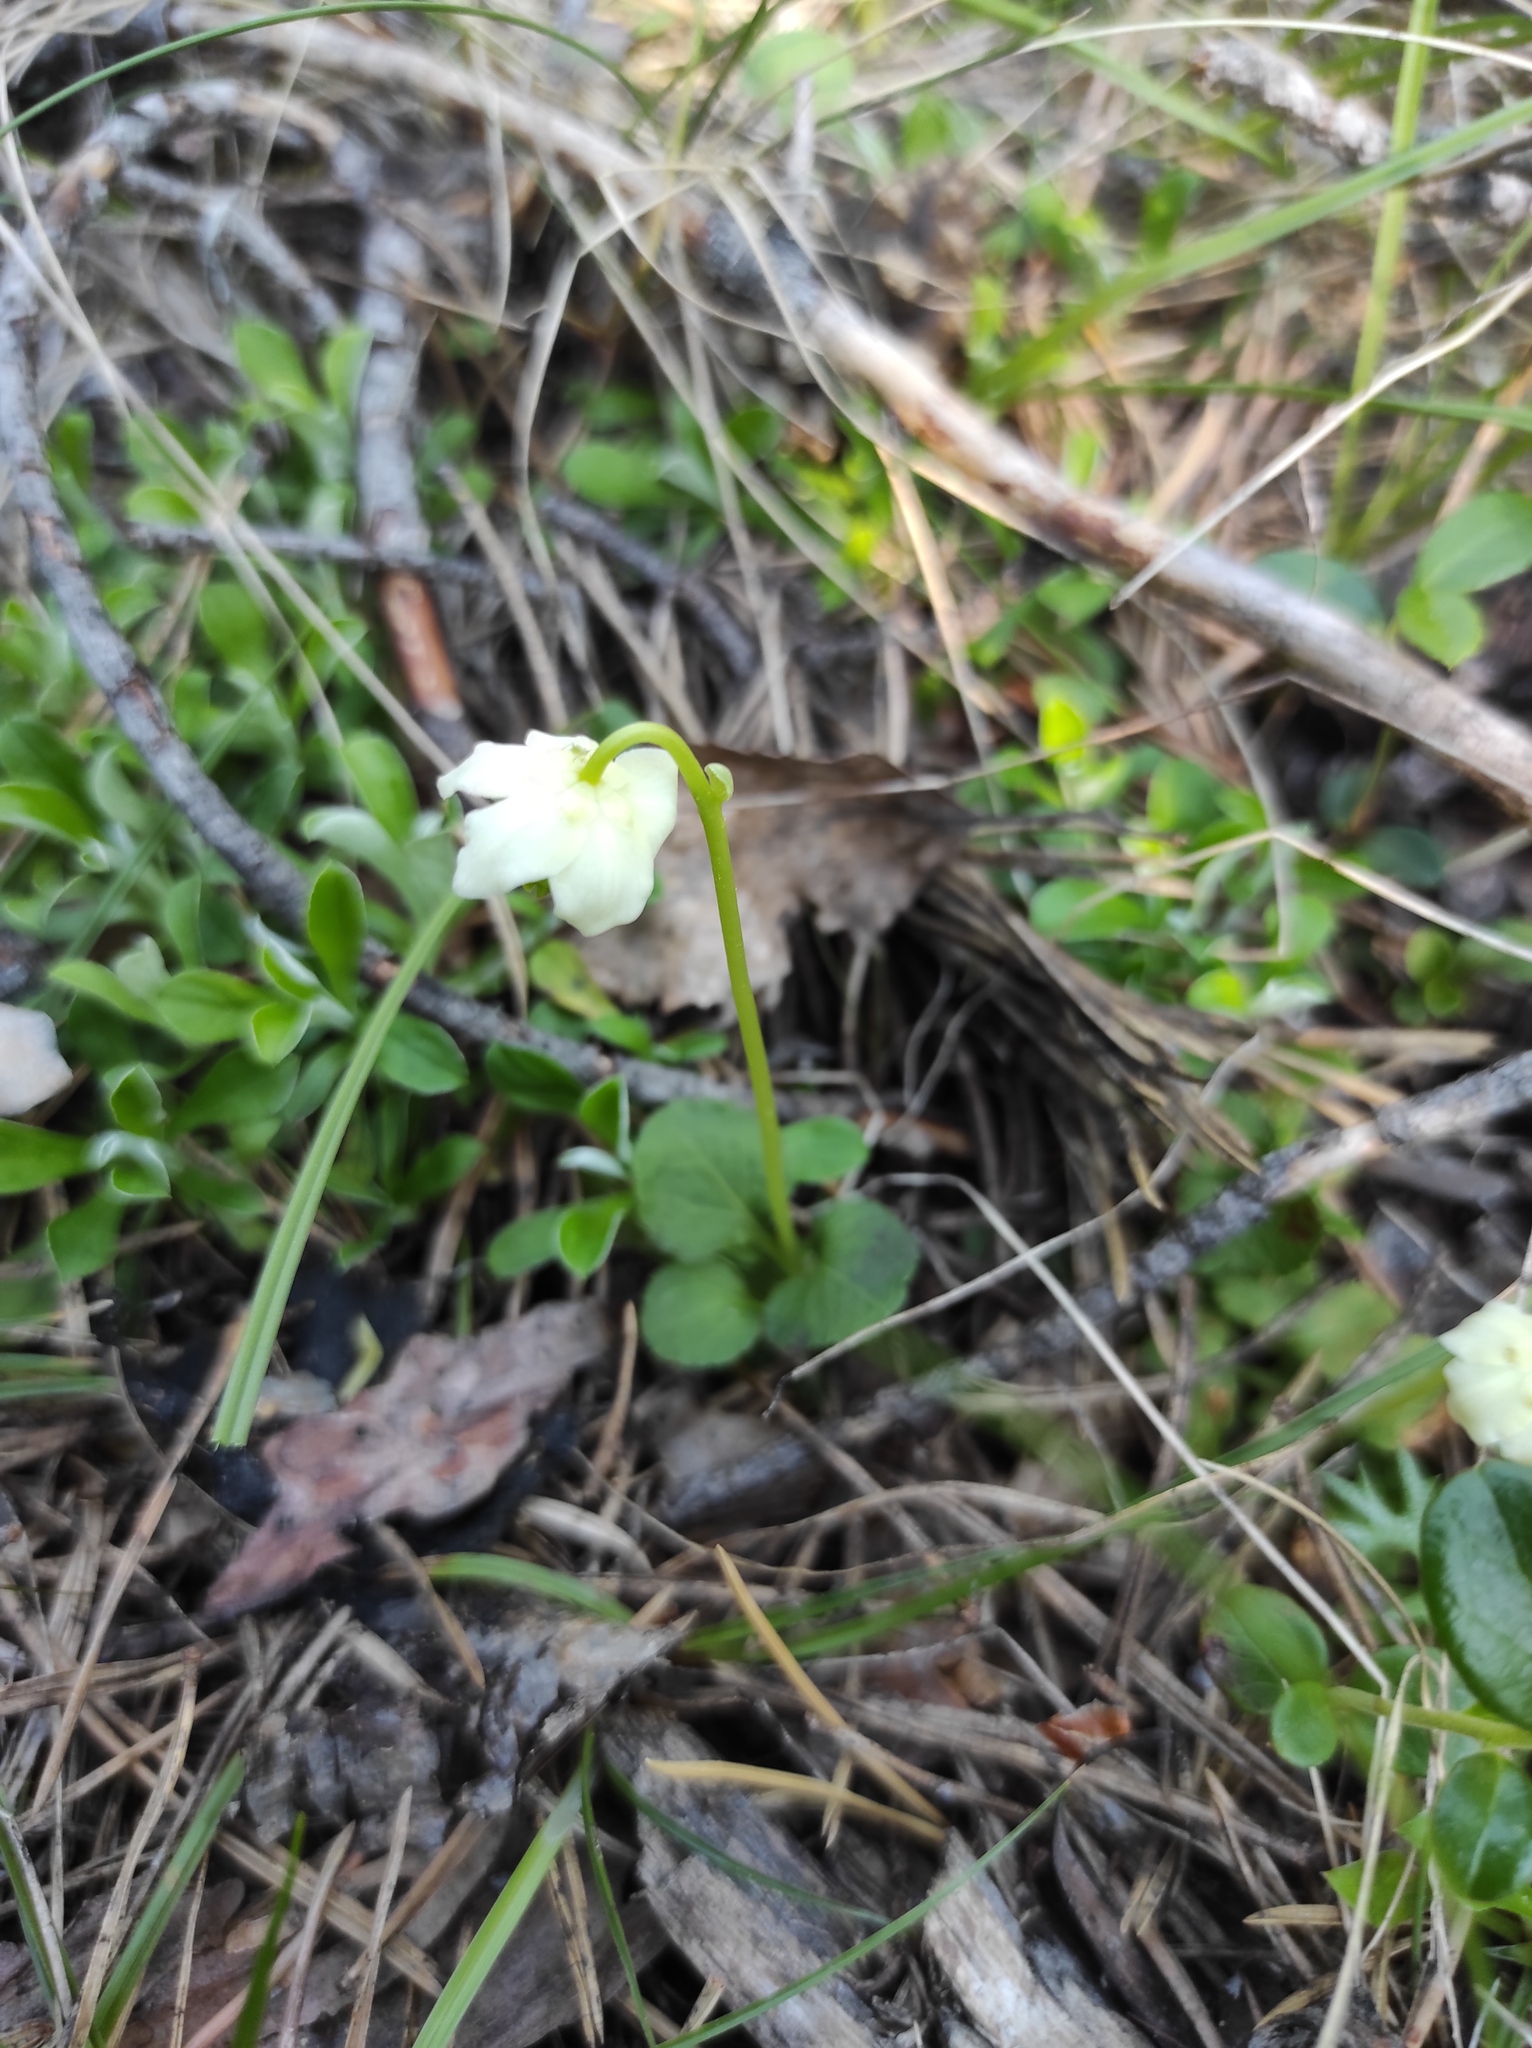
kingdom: Plantae
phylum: Tracheophyta
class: Magnoliopsida
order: Ericales
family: Ericaceae
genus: Moneses
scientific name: Moneses uniflora
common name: One-flowered wintergreen
